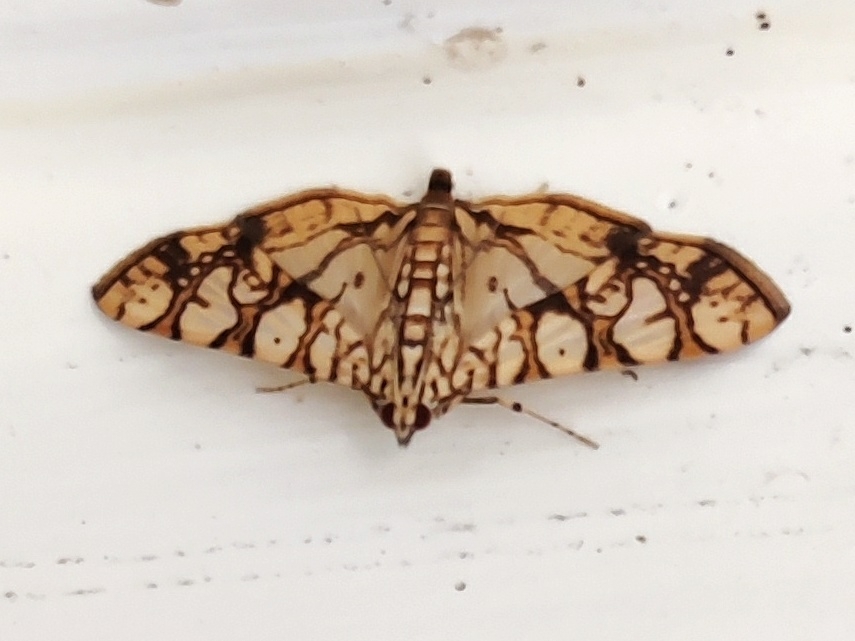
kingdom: Animalia
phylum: Arthropoda
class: Insecta
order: Lepidoptera
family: Crambidae
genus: Glyphodes
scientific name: Glyphodes caesalis
